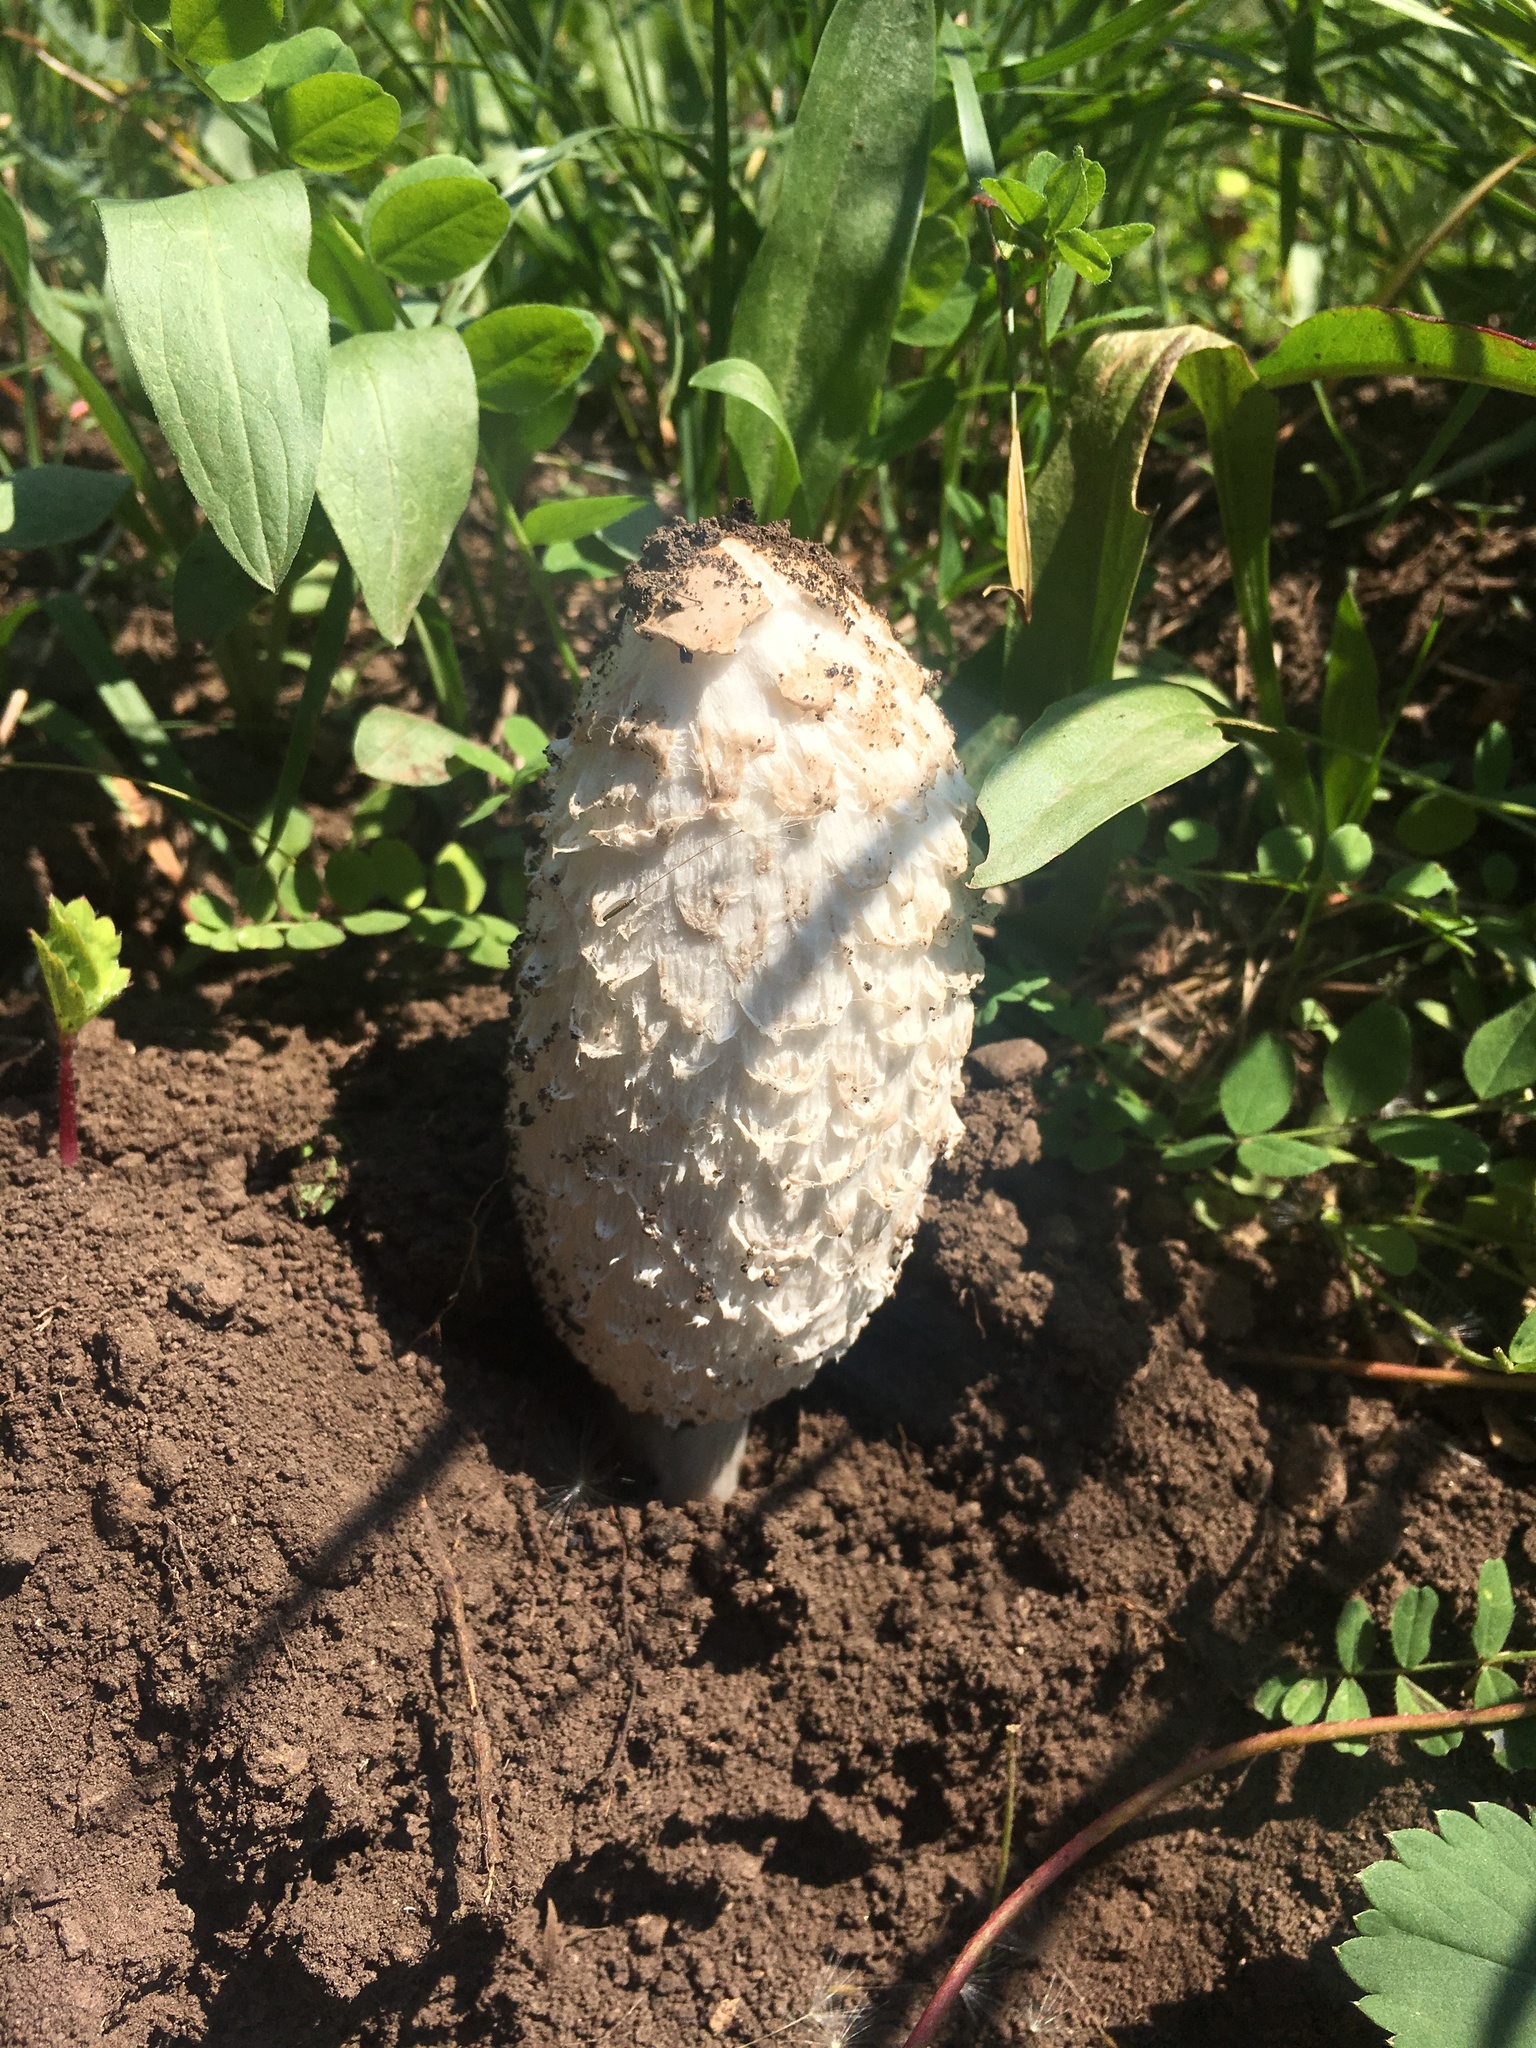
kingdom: Fungi
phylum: Basidiomycota
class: Agaricomycetes
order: Agaricales
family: Agaricaceae
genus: Coprinus
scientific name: Coprinus comatus
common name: Lawyer's wig
